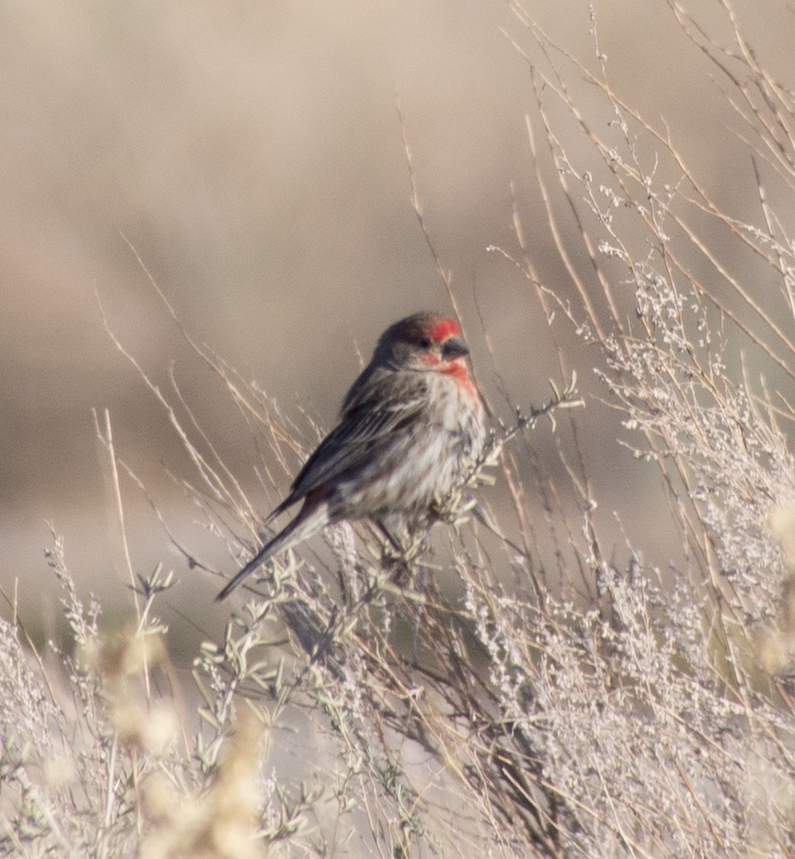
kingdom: Animalia
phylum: Chordata
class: Aves
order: Passeriformes
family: Fringillidae
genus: Haemorhous
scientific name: Haemorhous mexicanus
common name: House finch
